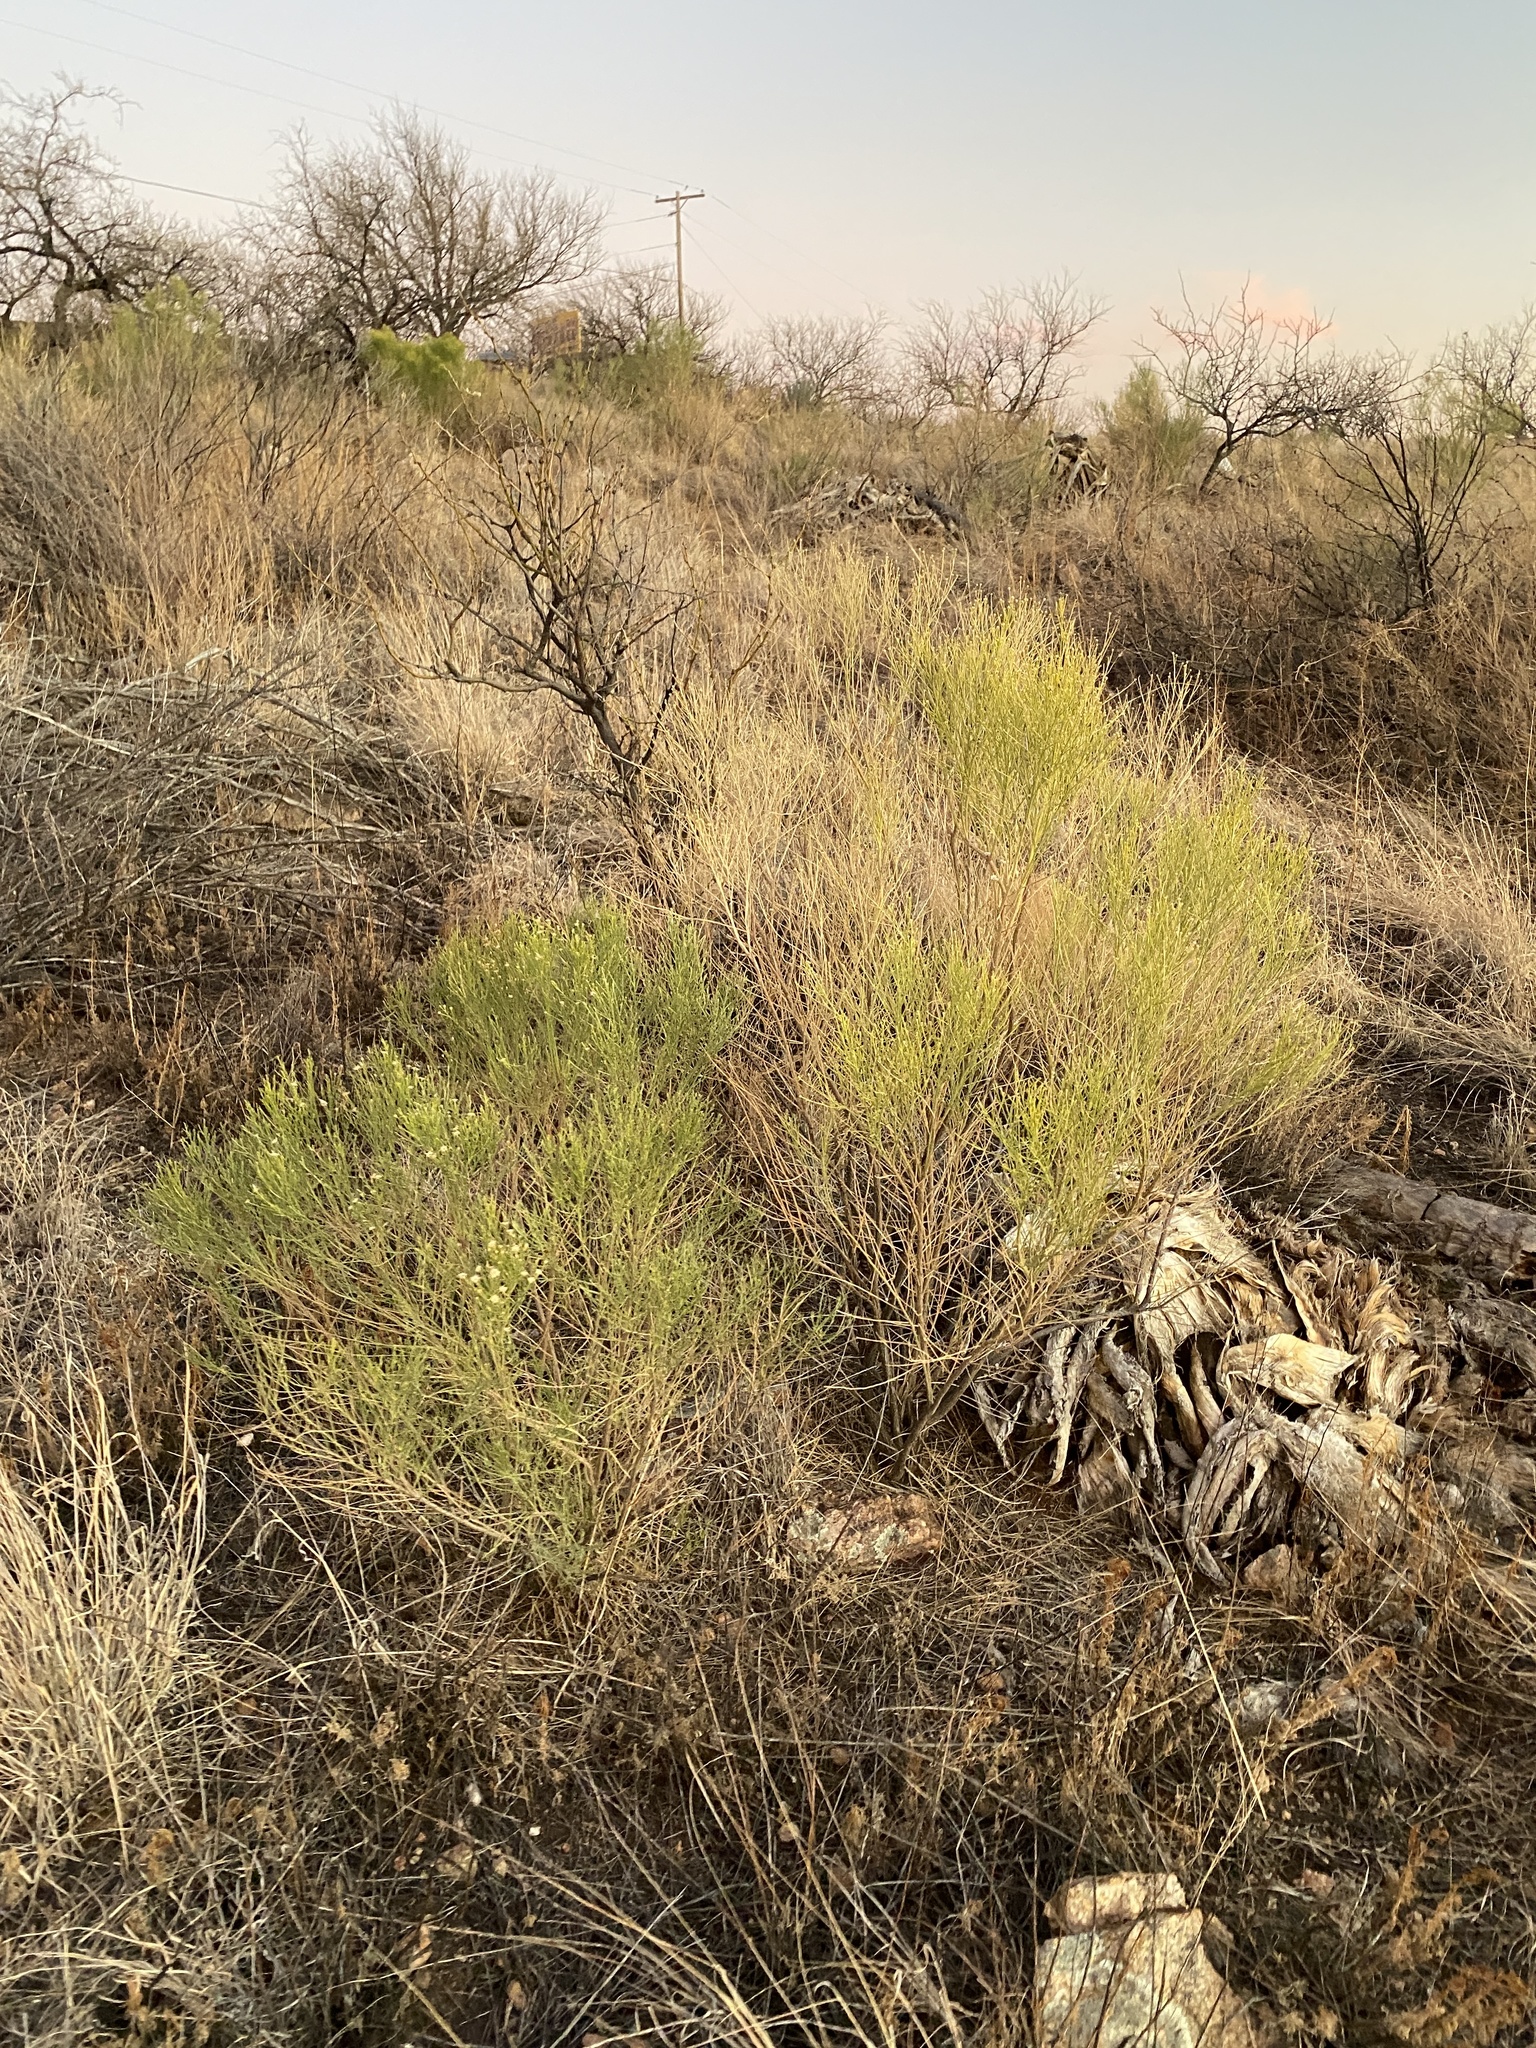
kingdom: Plantae
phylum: Tracheophyta
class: Magnoliopsida
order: Asterales
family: Asteraceae
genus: Baccharis
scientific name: Baccharis sarothroides
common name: Desert-broom
